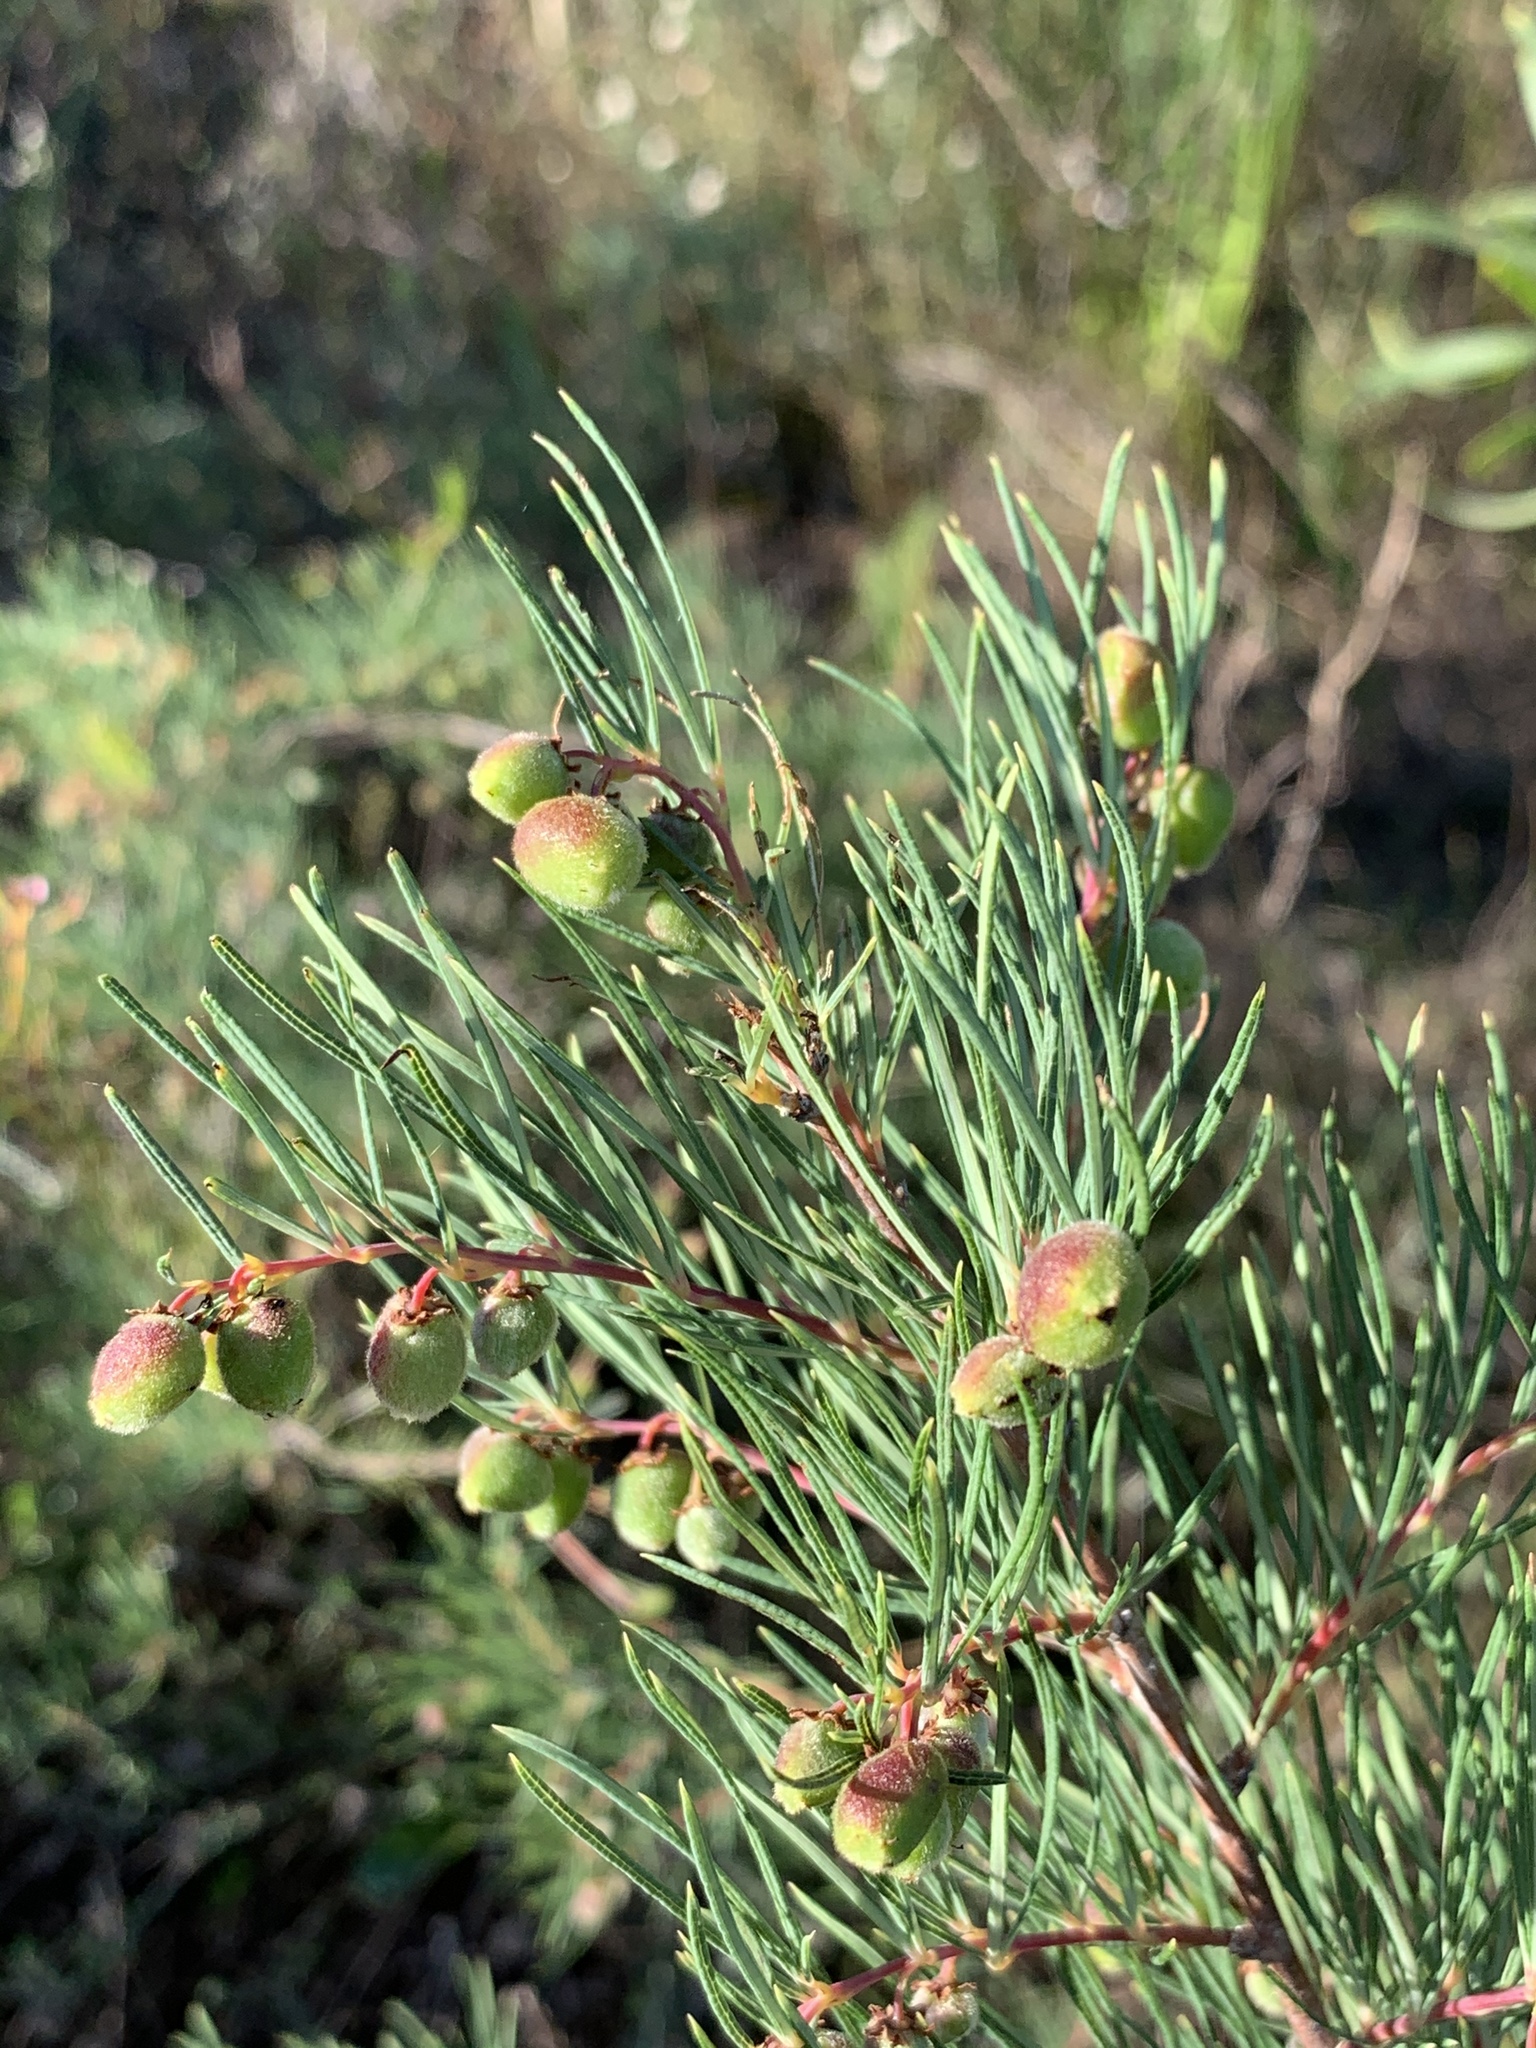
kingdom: Plantae
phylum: Tracheophyta
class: Magnoliopsida
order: Sapindales
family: Anacardiaceae
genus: Searsia
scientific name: Searsia rosmarinifolia
